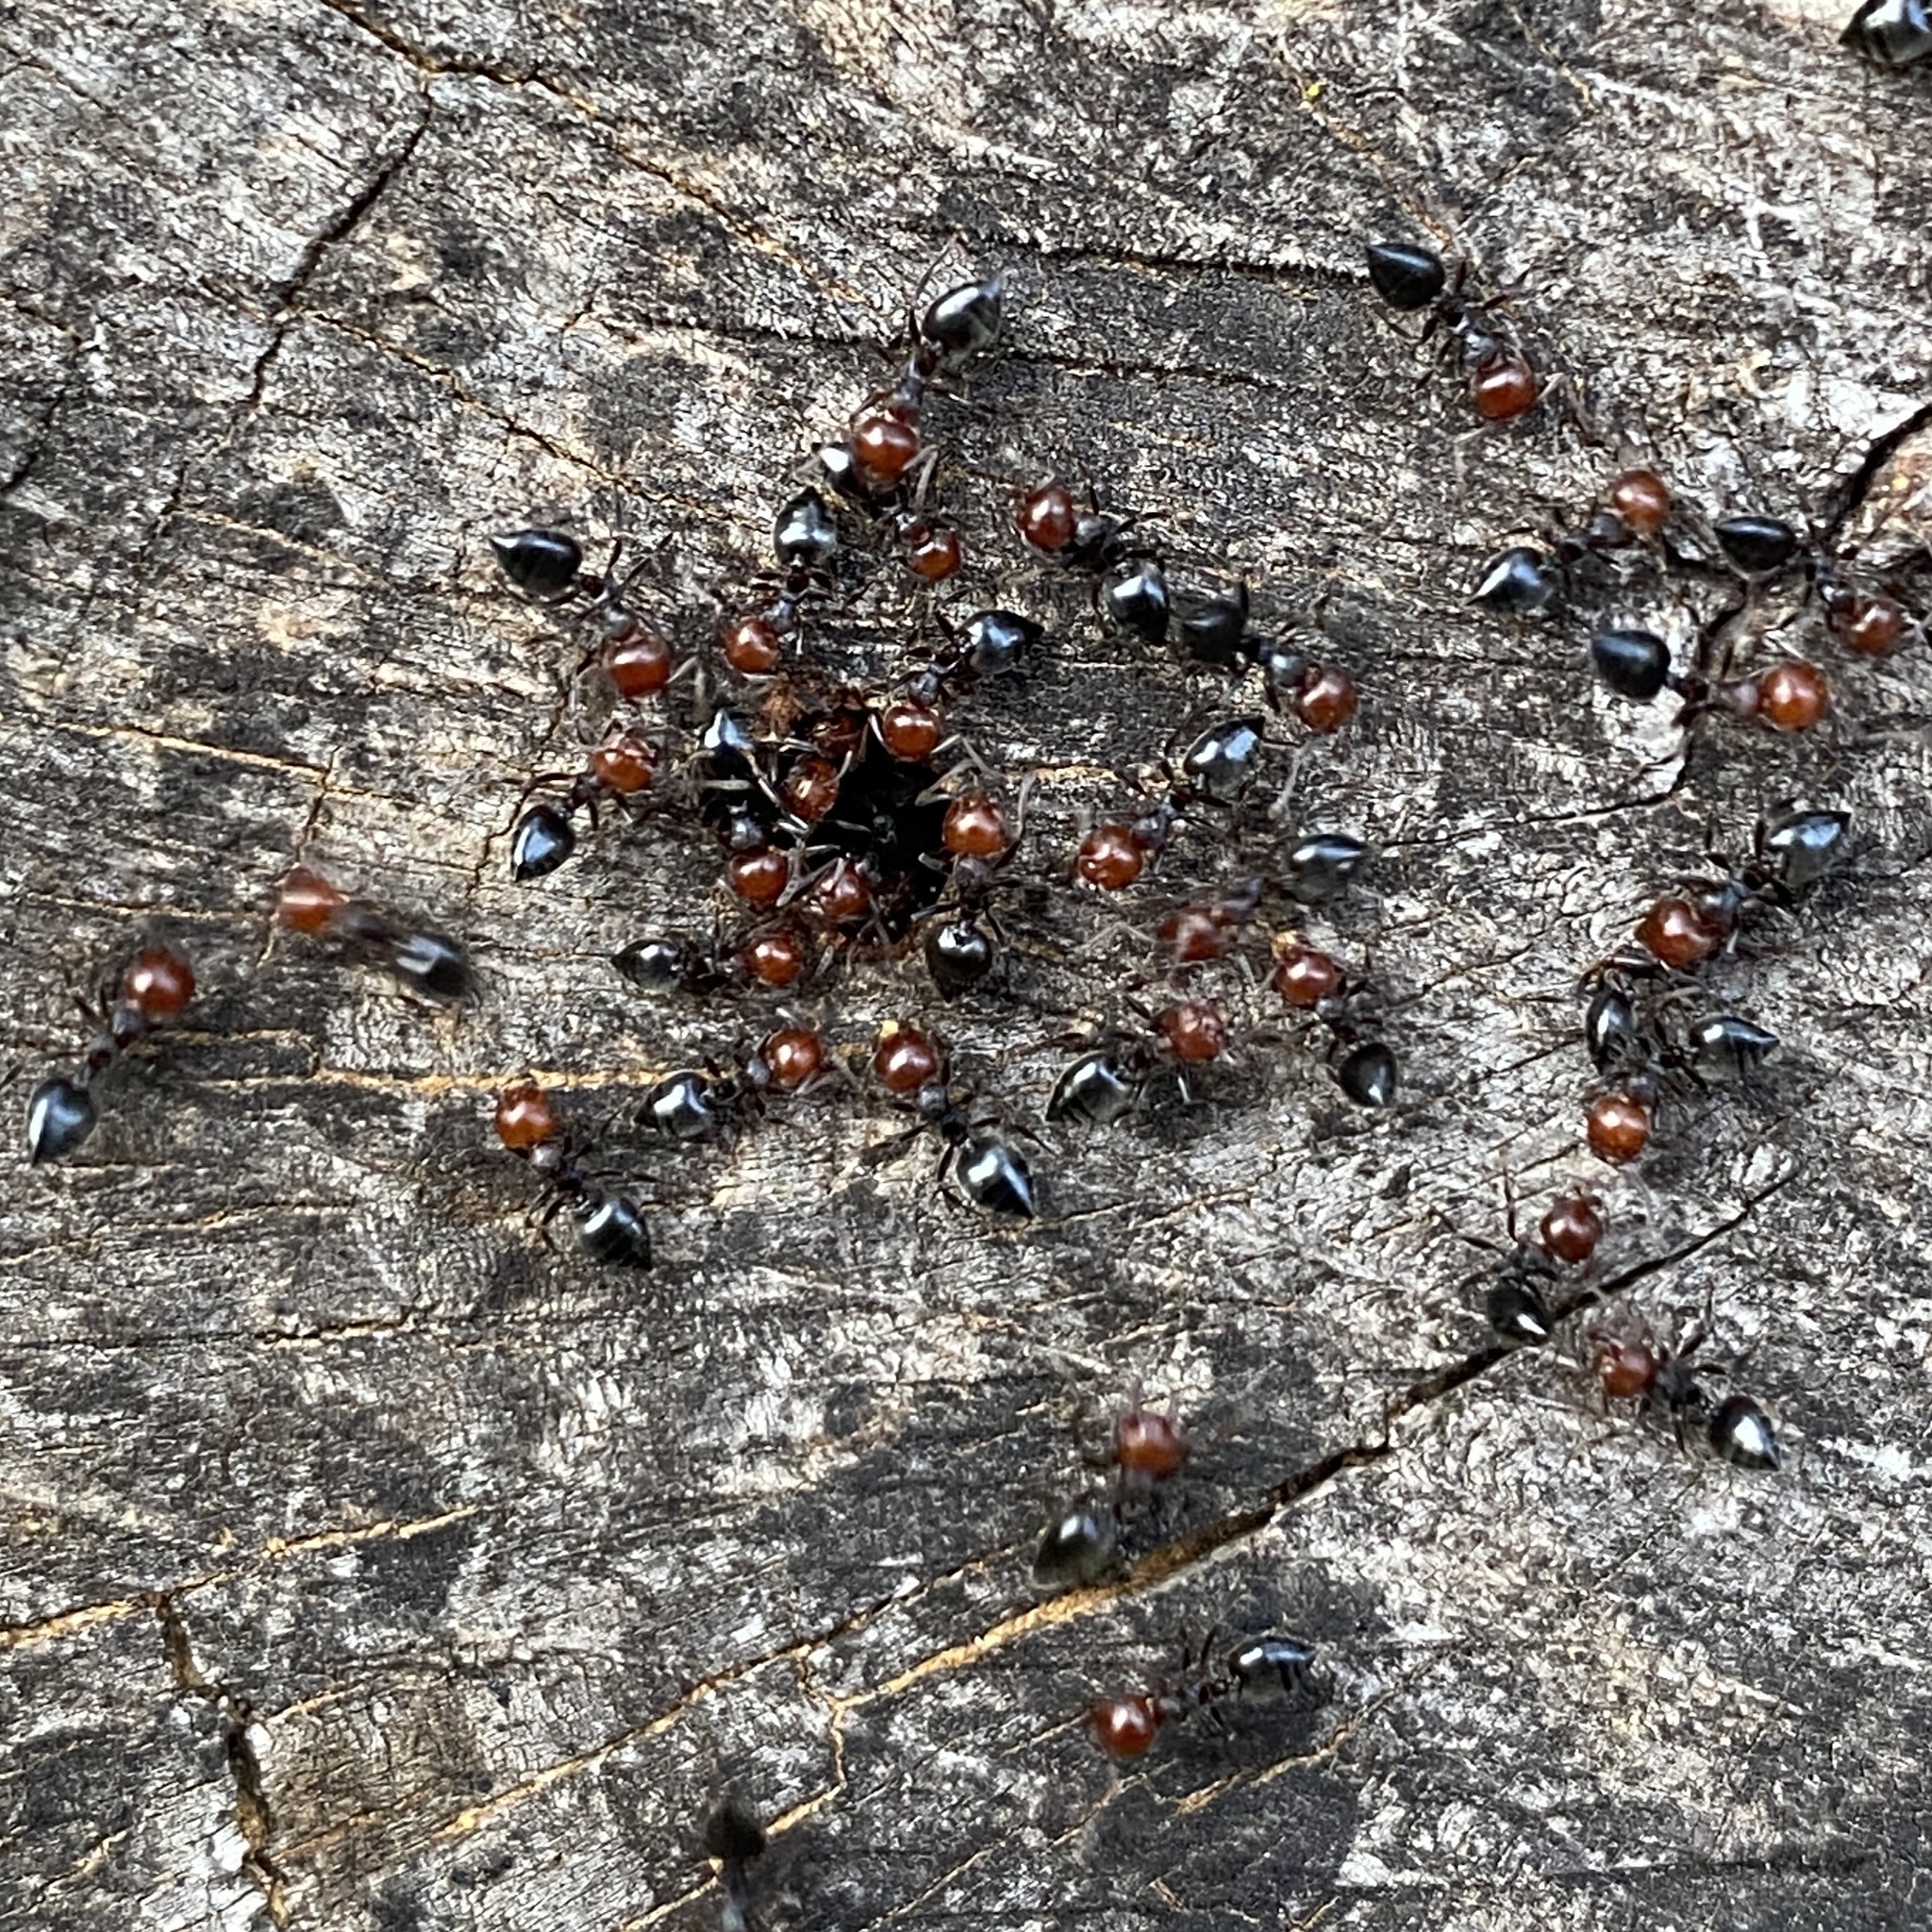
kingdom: Animalia
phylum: Arthropoda
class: Insecta
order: Hymenoptera
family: Formicidae
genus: Crematogaster
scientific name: Crematogaster scutellaris
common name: Fourmi du liège
